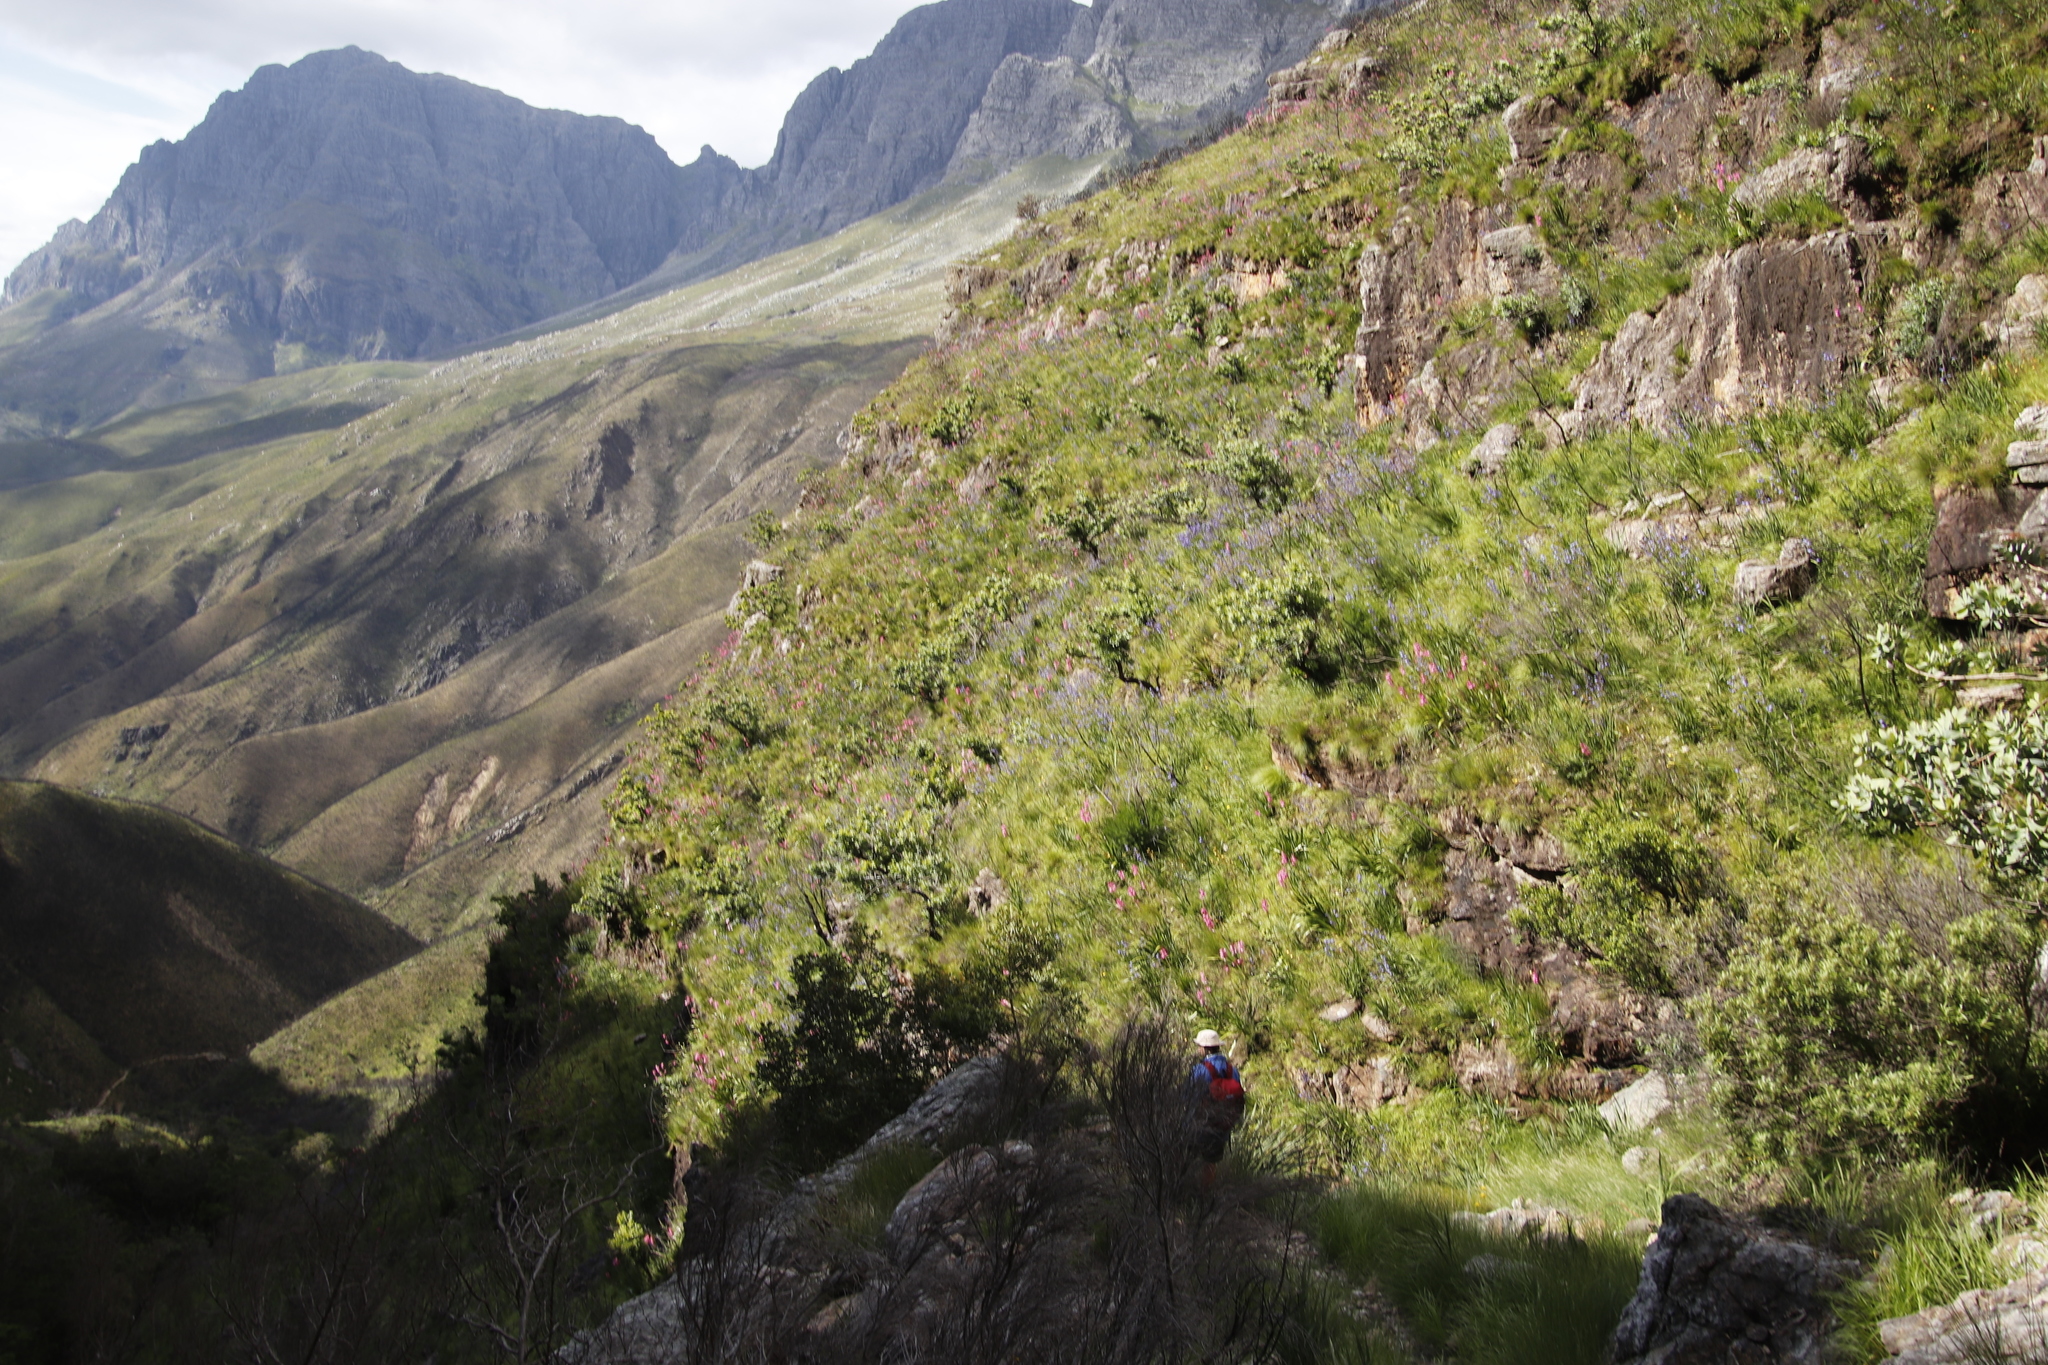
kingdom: Plantae
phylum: Tracheophyta
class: Magnoliopsida
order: Proteales
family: Proteaceae
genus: Protea
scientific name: Protea nitida
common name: Tree protea
